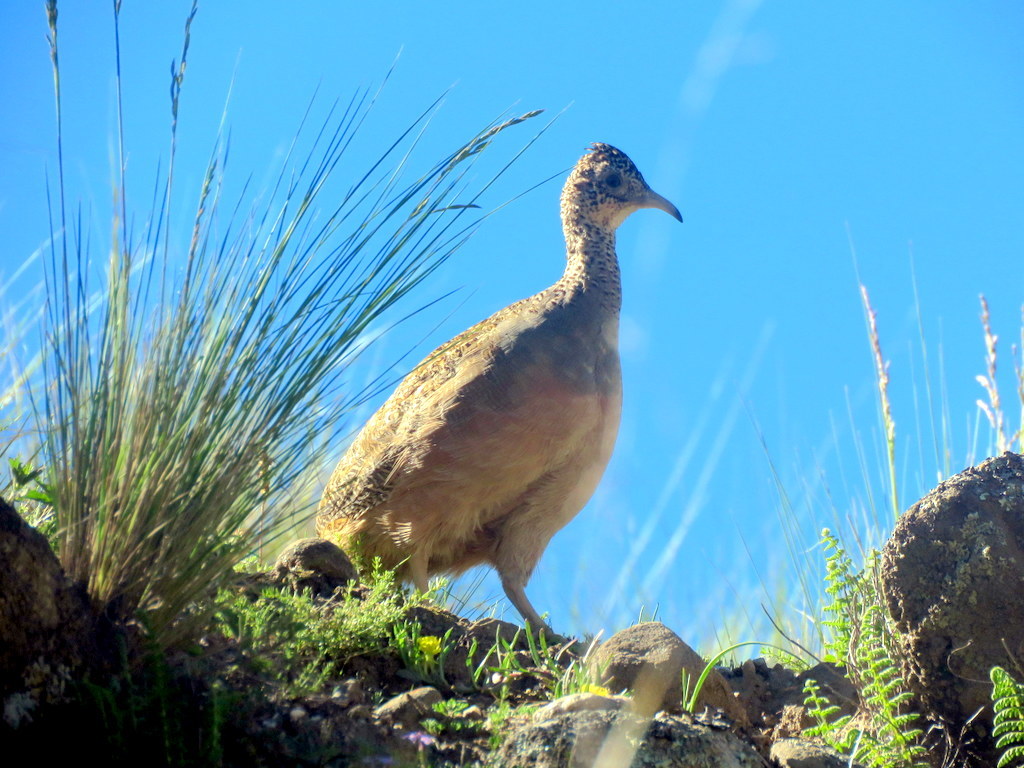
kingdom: Animalia
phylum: Chordata
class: Aves
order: Tinamiformes
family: Tinamidae
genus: Nothoprocta
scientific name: Nothoprocta ornata
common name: Ornate tinamou
